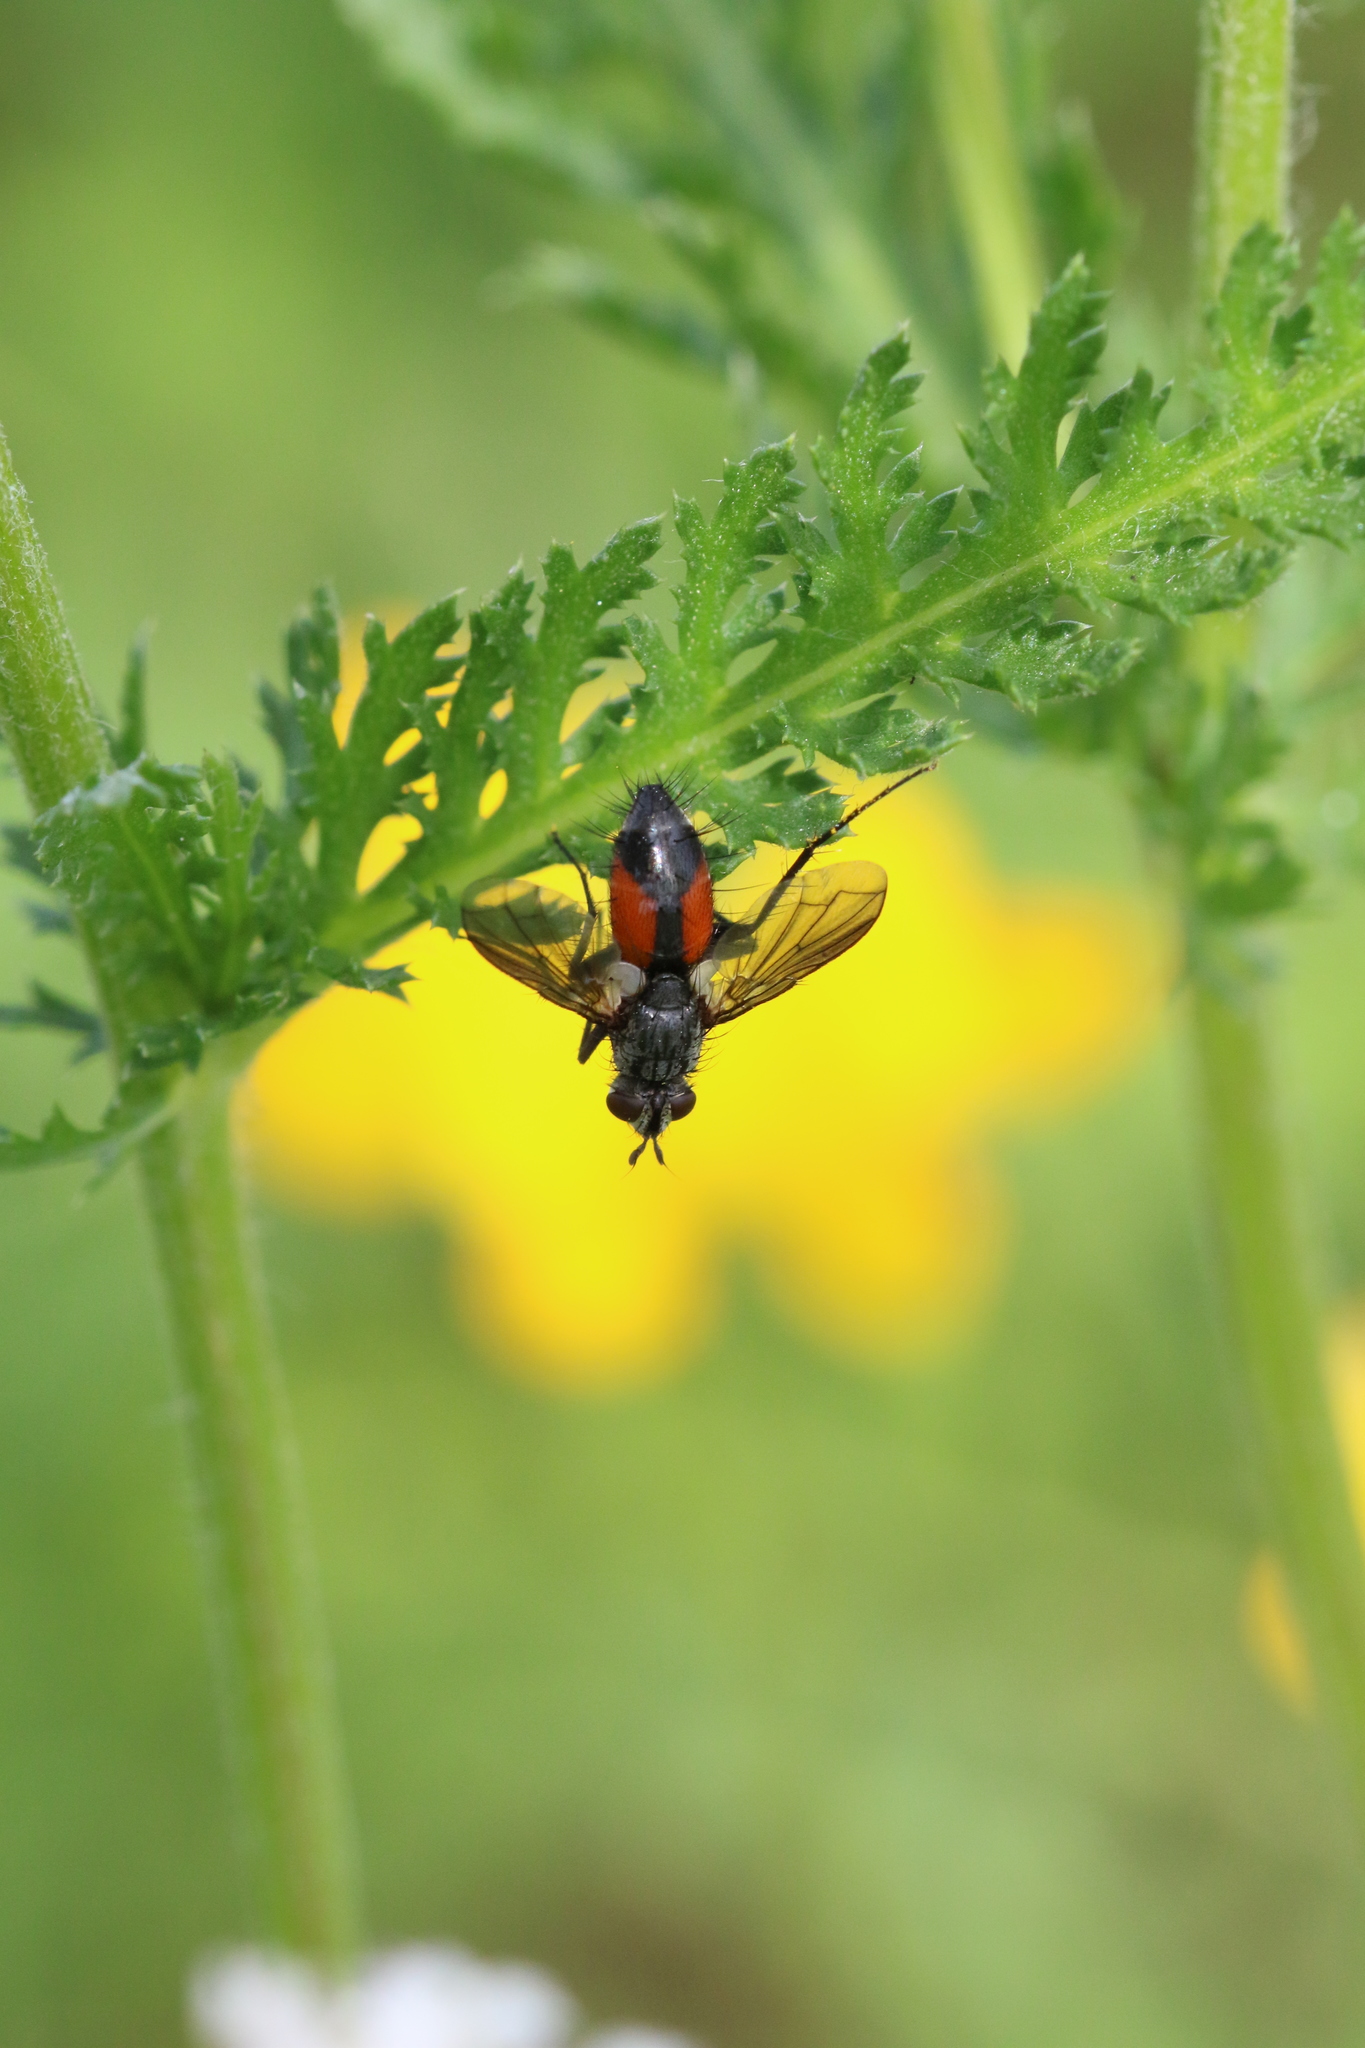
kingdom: Animalia
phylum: Arthropoda
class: Insecta
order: Diptera
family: Tachinidae
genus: Eriothrix
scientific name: Eriothrix rufomaculatus
